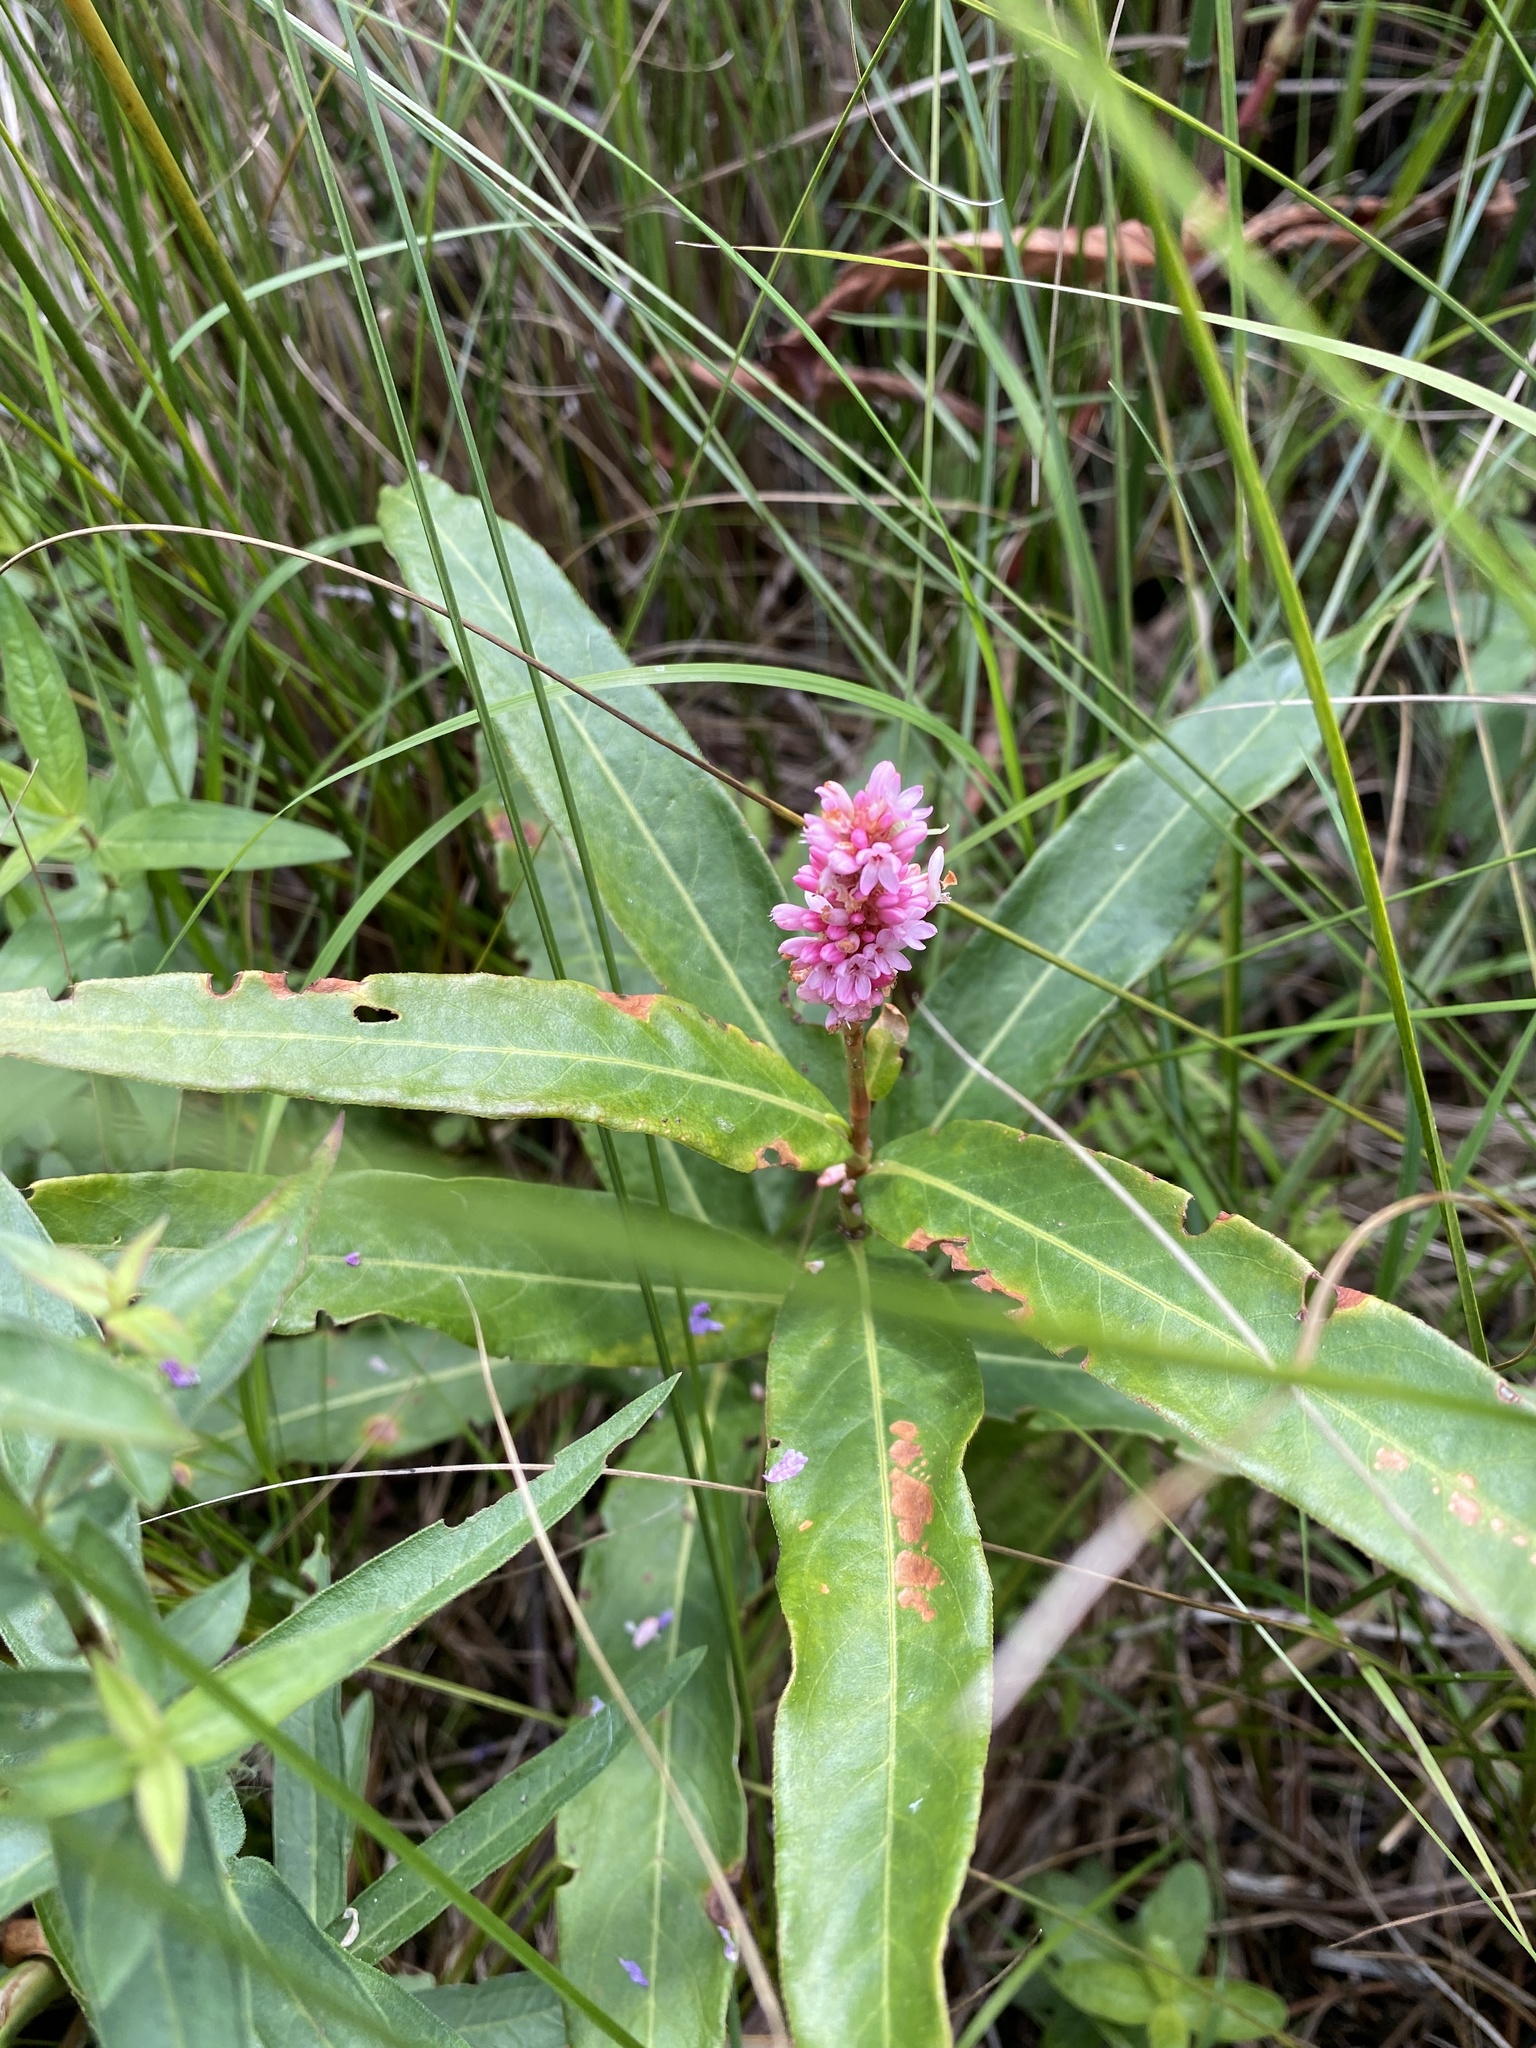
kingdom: Plantae
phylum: Tracheophyta
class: Magnoliopsida
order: Caryophyllales
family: Polygonaceae
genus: Persicaria
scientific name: Persicaria amphibia
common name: Amphibious bistort
